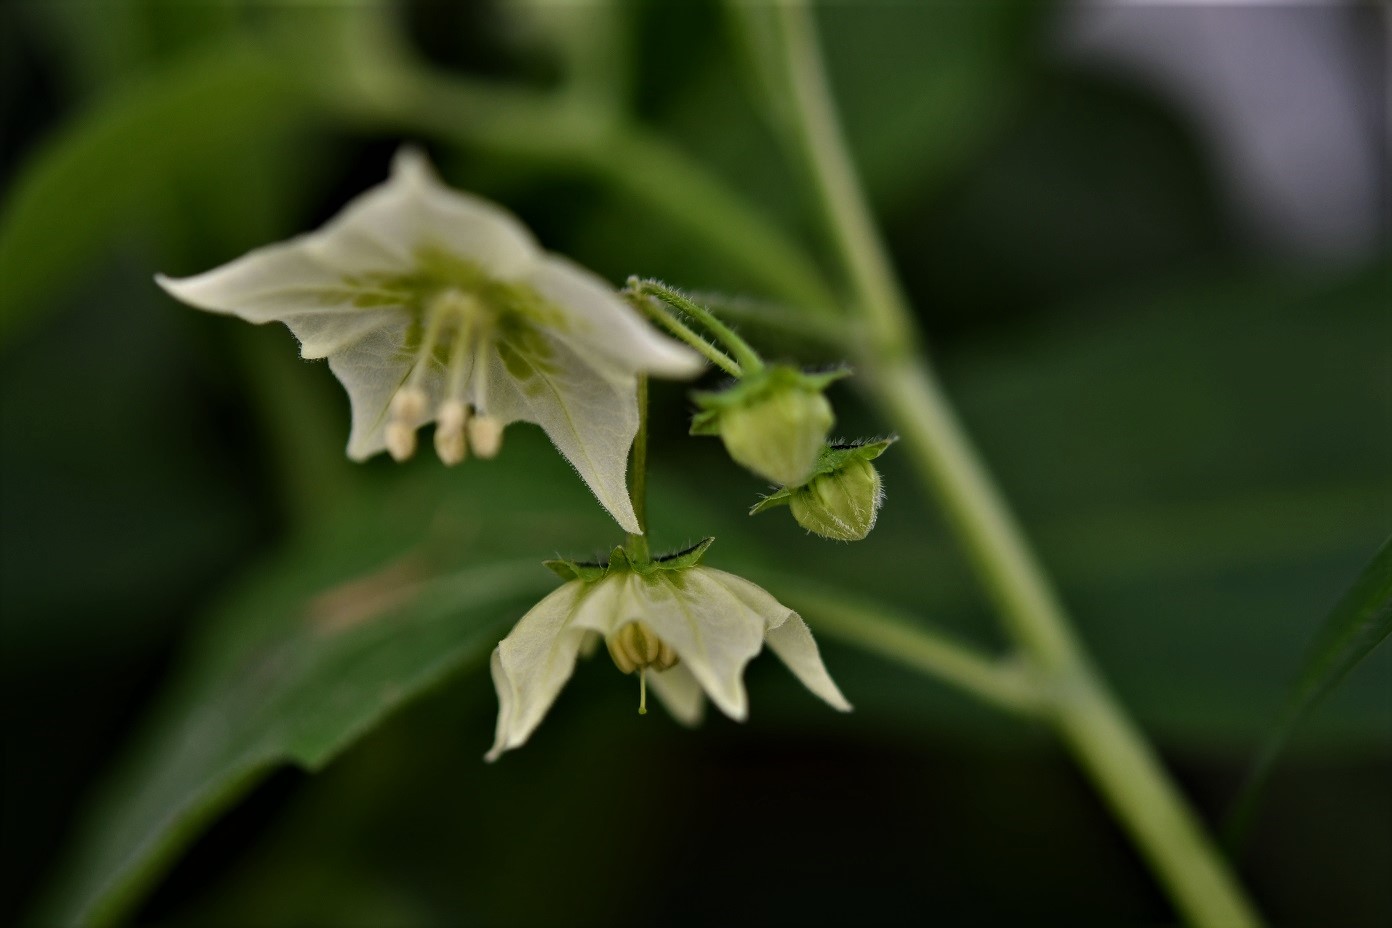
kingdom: Plantae
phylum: Tracheophyta
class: Magnoliopsida
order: Solanales
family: Solanaceae
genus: Jaltomata
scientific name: Jaltomata procumbens
